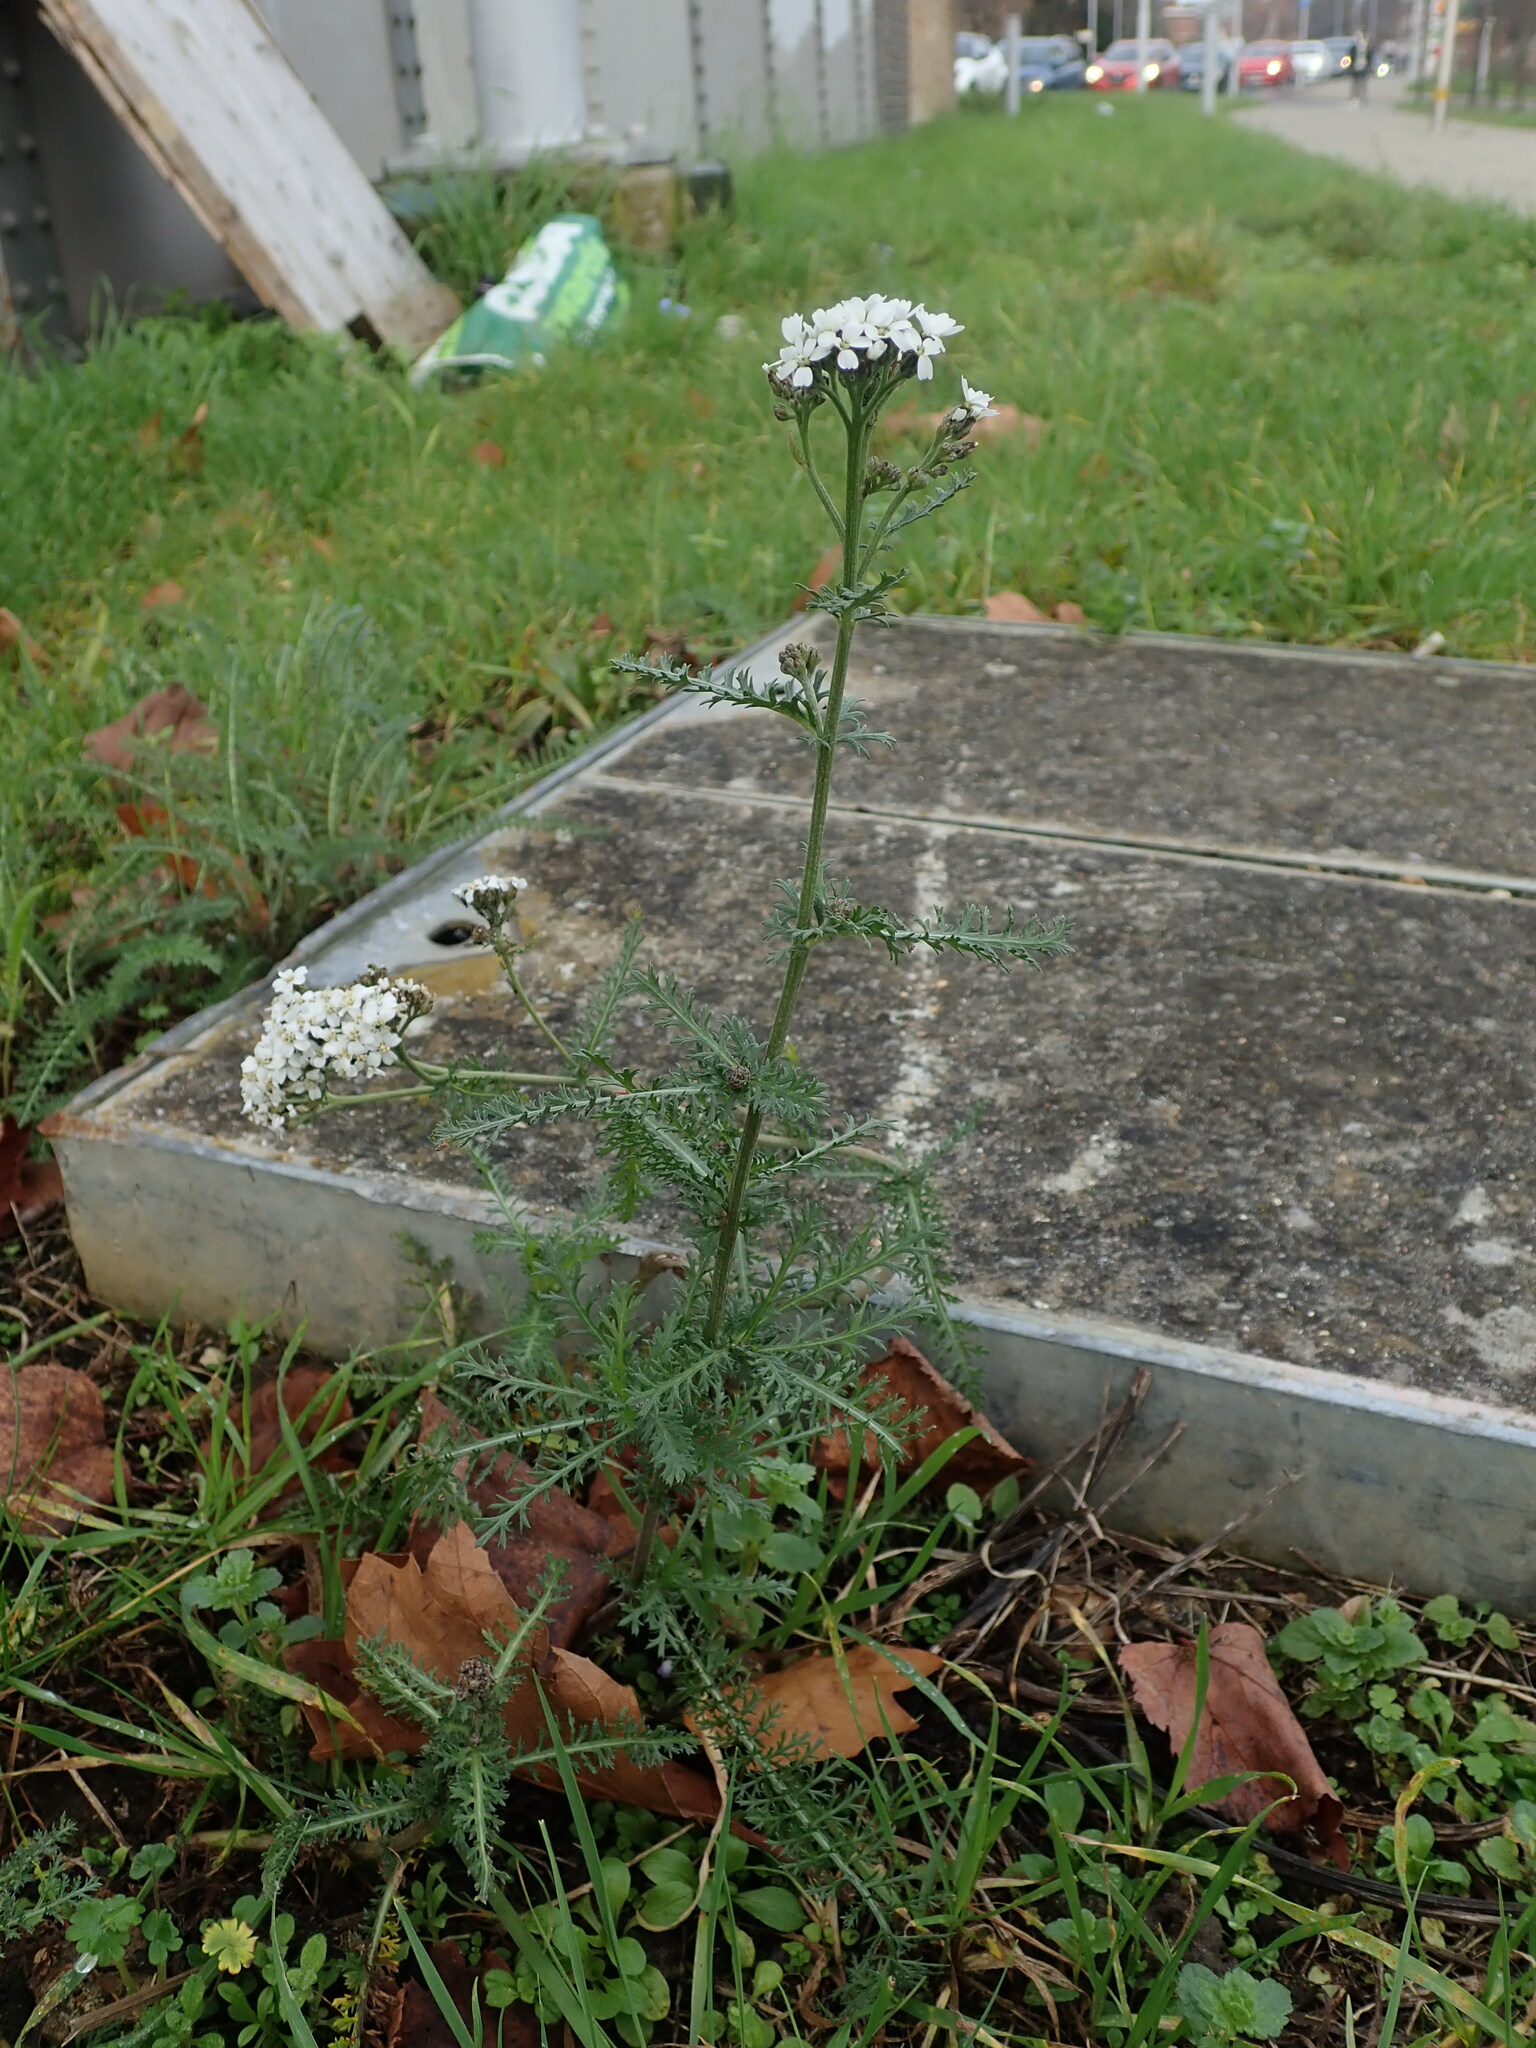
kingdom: Plantae
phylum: Tracheophyta
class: Magnoliopsida
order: Asterales
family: Asteraceae
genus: Achillea
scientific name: Achillea millefolium
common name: Yarrow
